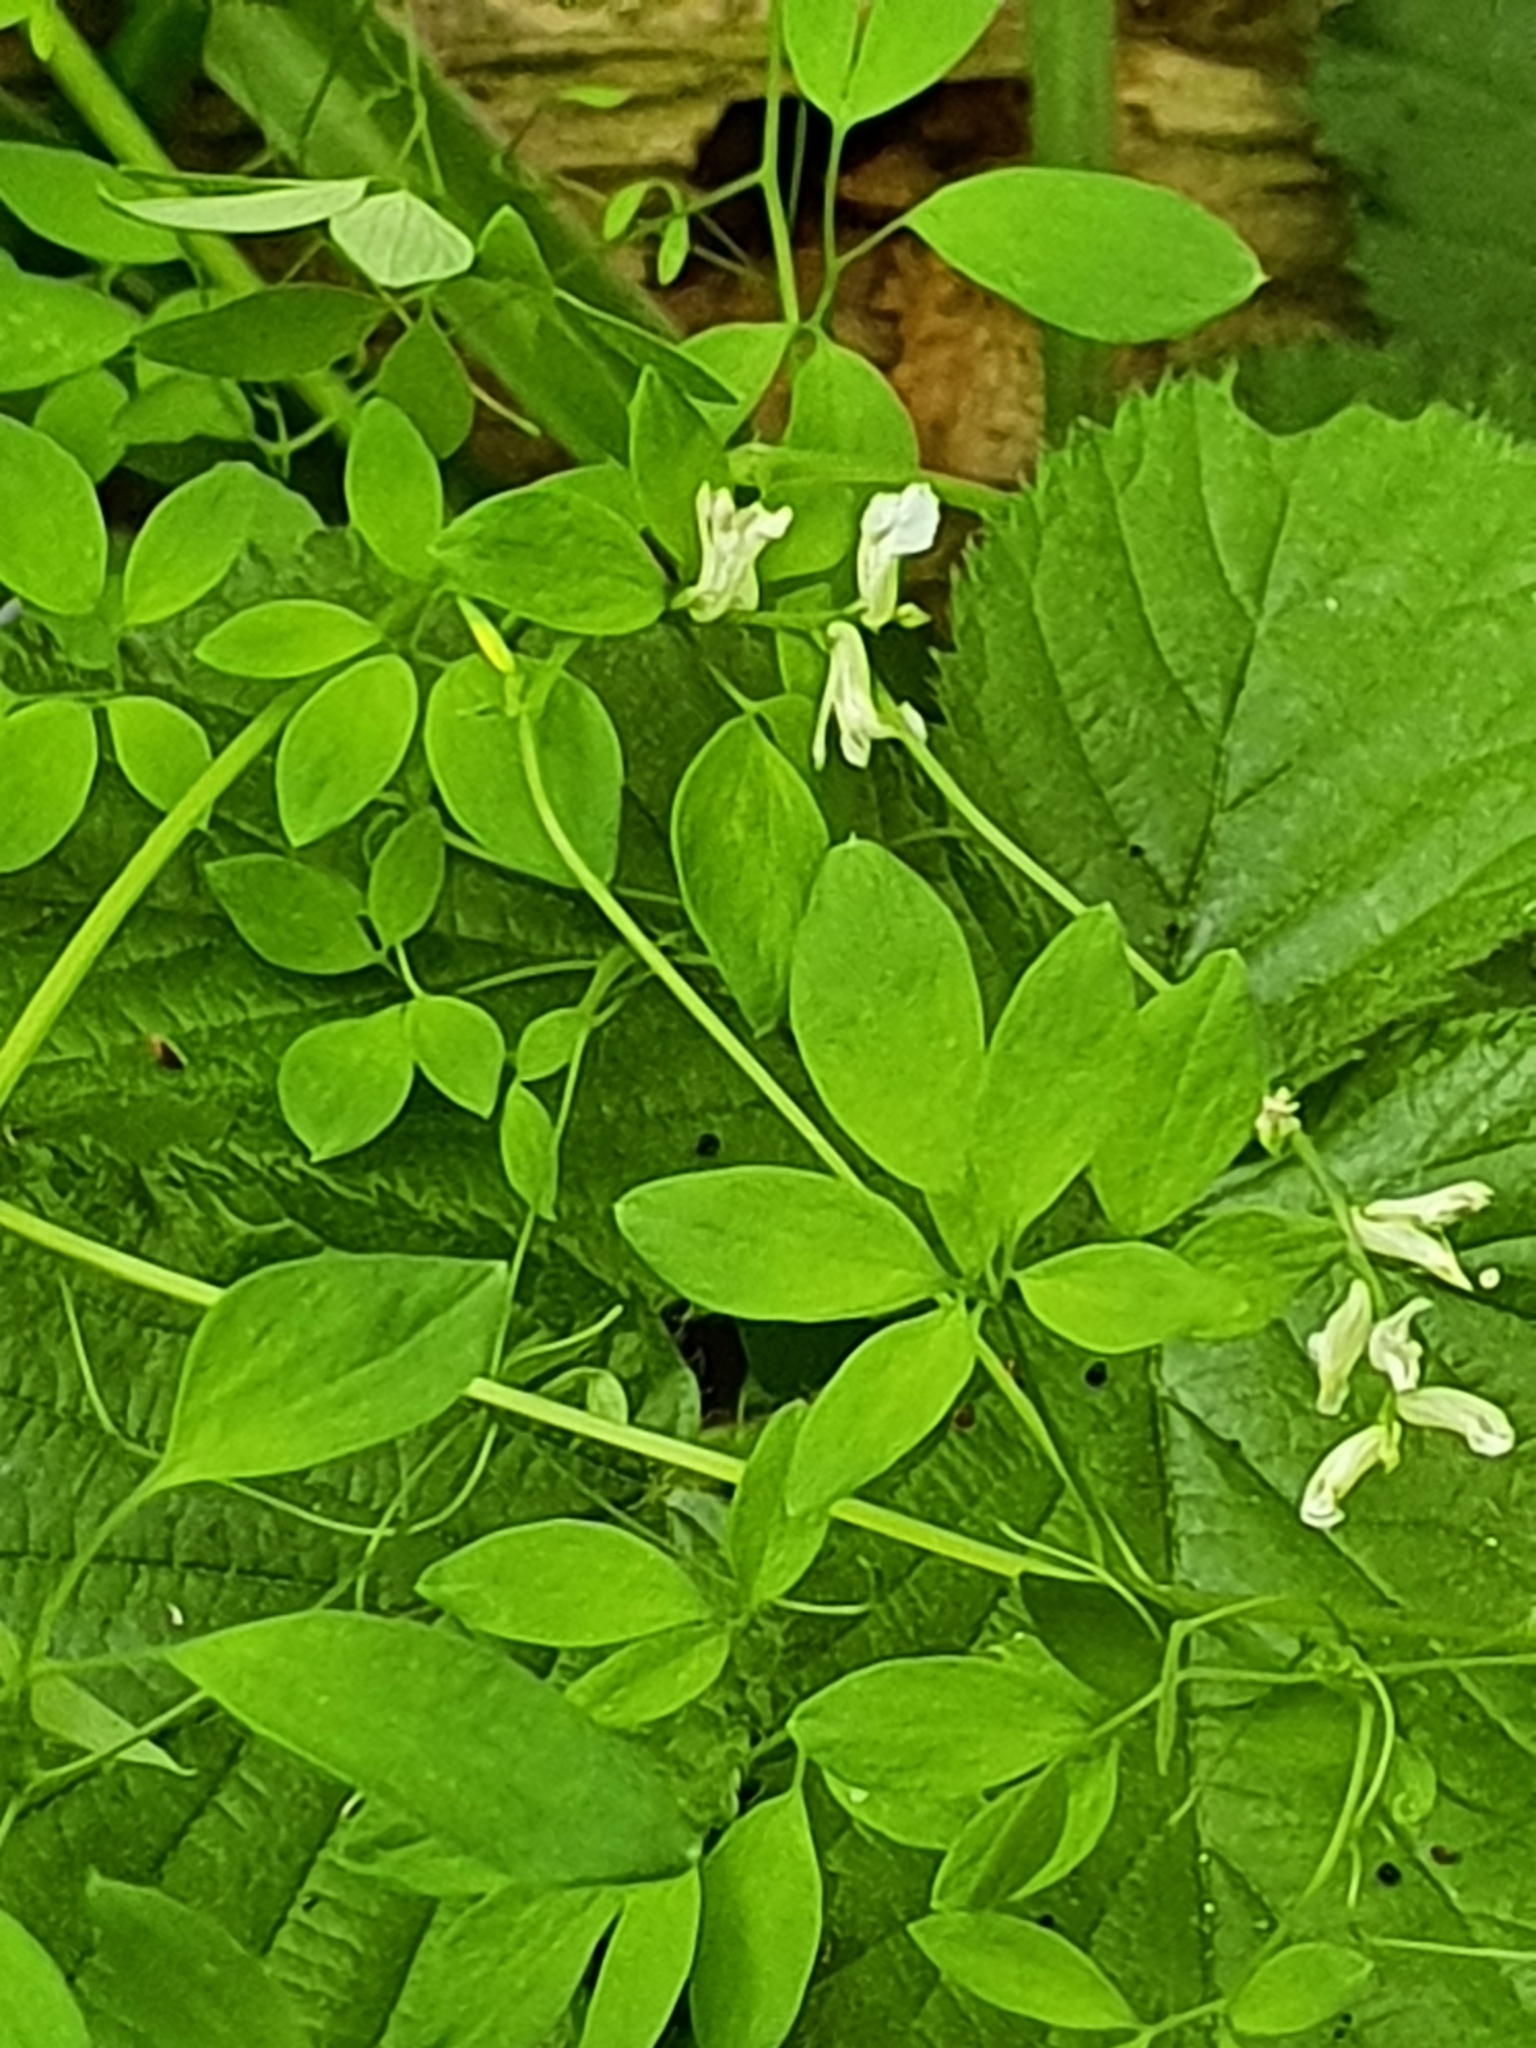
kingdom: Plantae
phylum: Tracheophyta
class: Magnoliopsida
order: Ranunculales
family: Papaveraceae
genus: Ceratocapnos
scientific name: Ceratocapnos claviculata
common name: Climbing corydalis
